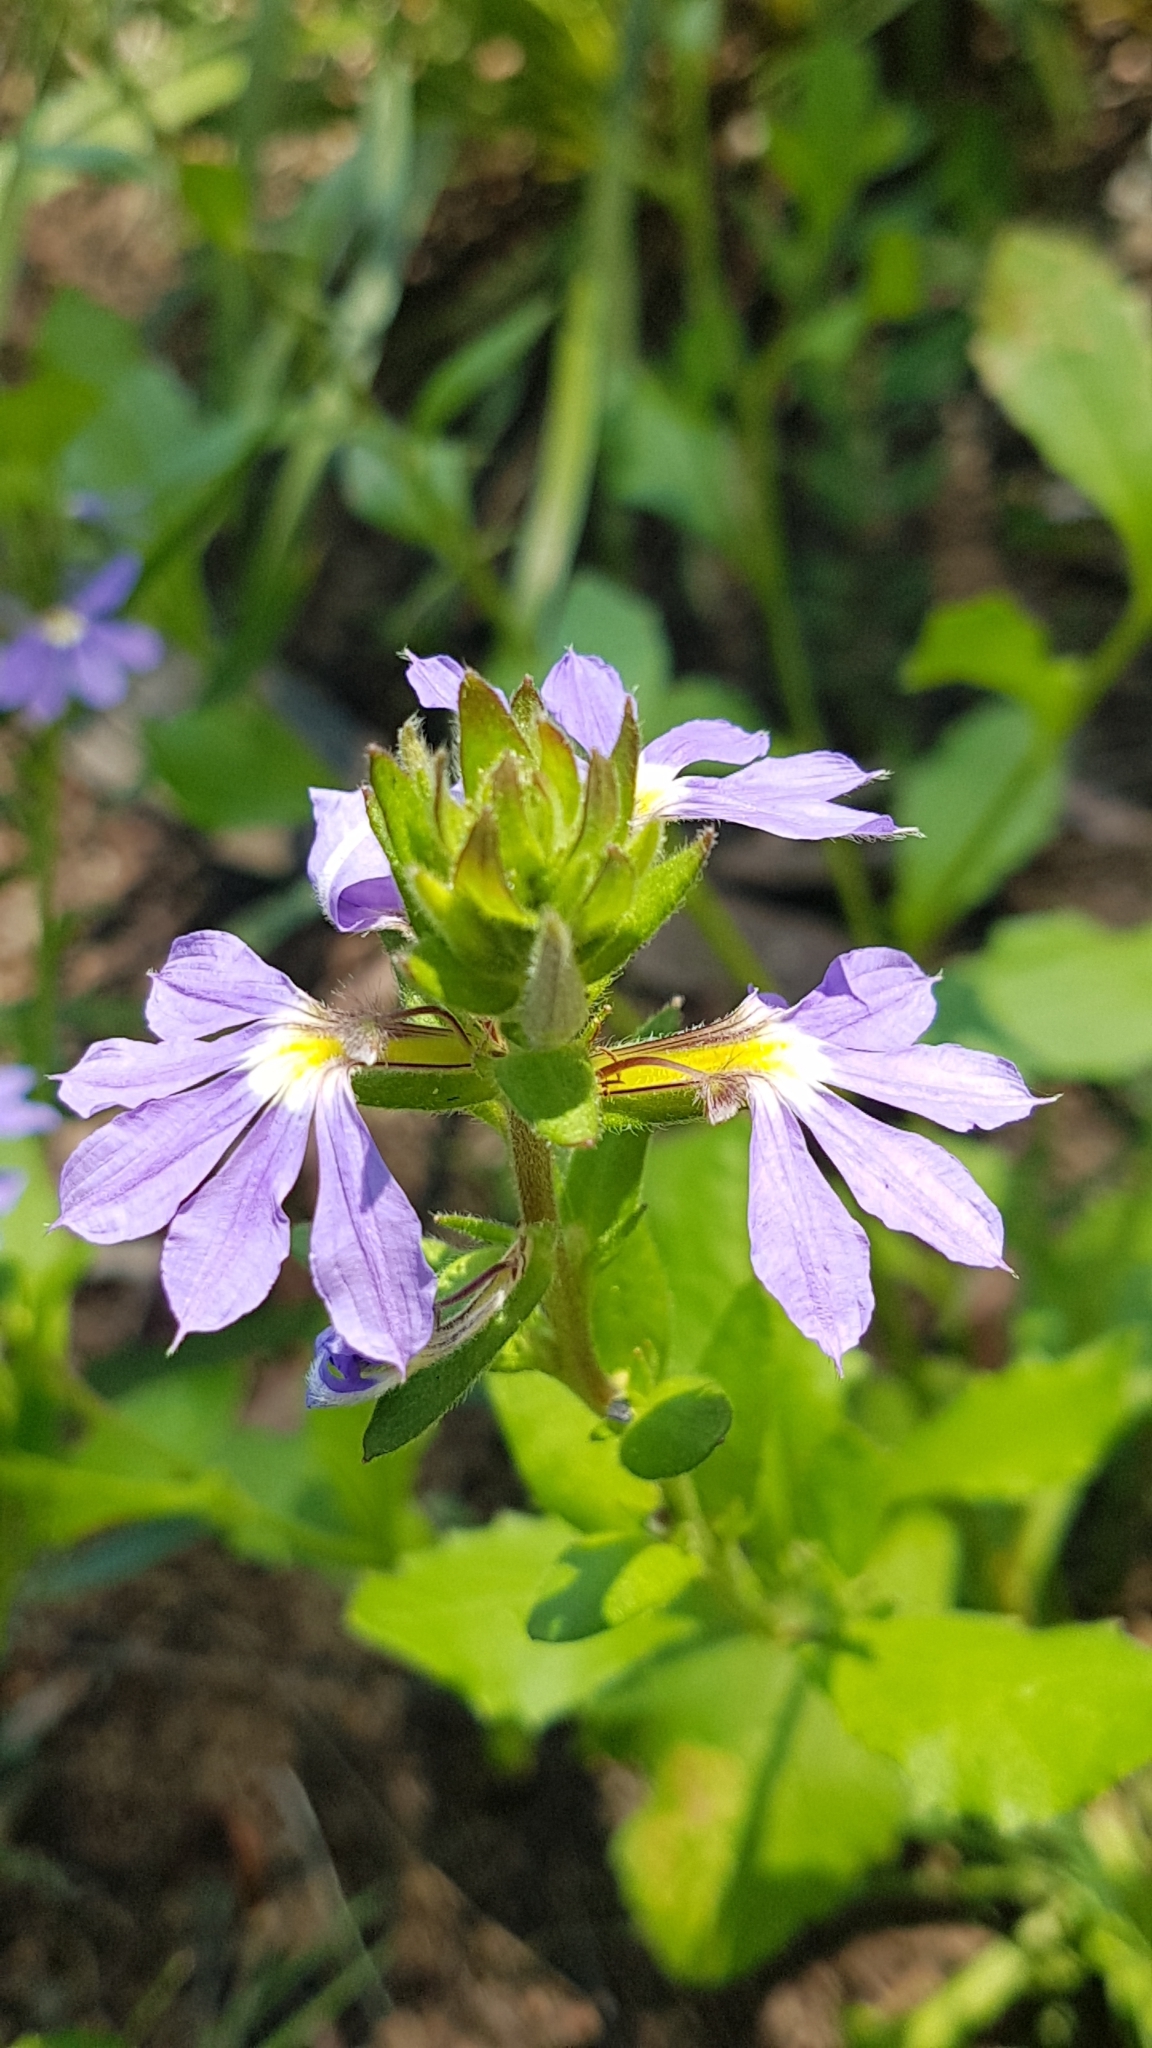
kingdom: Plantae
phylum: Tracheophyta
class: Magnoliopsida
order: Asterales
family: Goodeniaceae
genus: Scaevola
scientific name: Scaevola aemula
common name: Common fanflower
